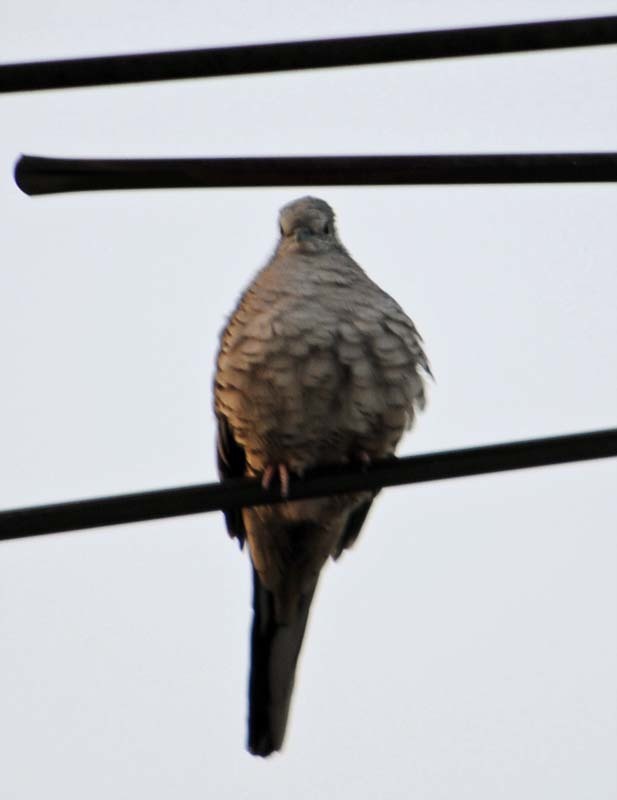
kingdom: Animalia
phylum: Chordata
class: Aves
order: Columbiformes
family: Columbidae
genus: Columbina
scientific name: Columbina inca
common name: Inca dove
